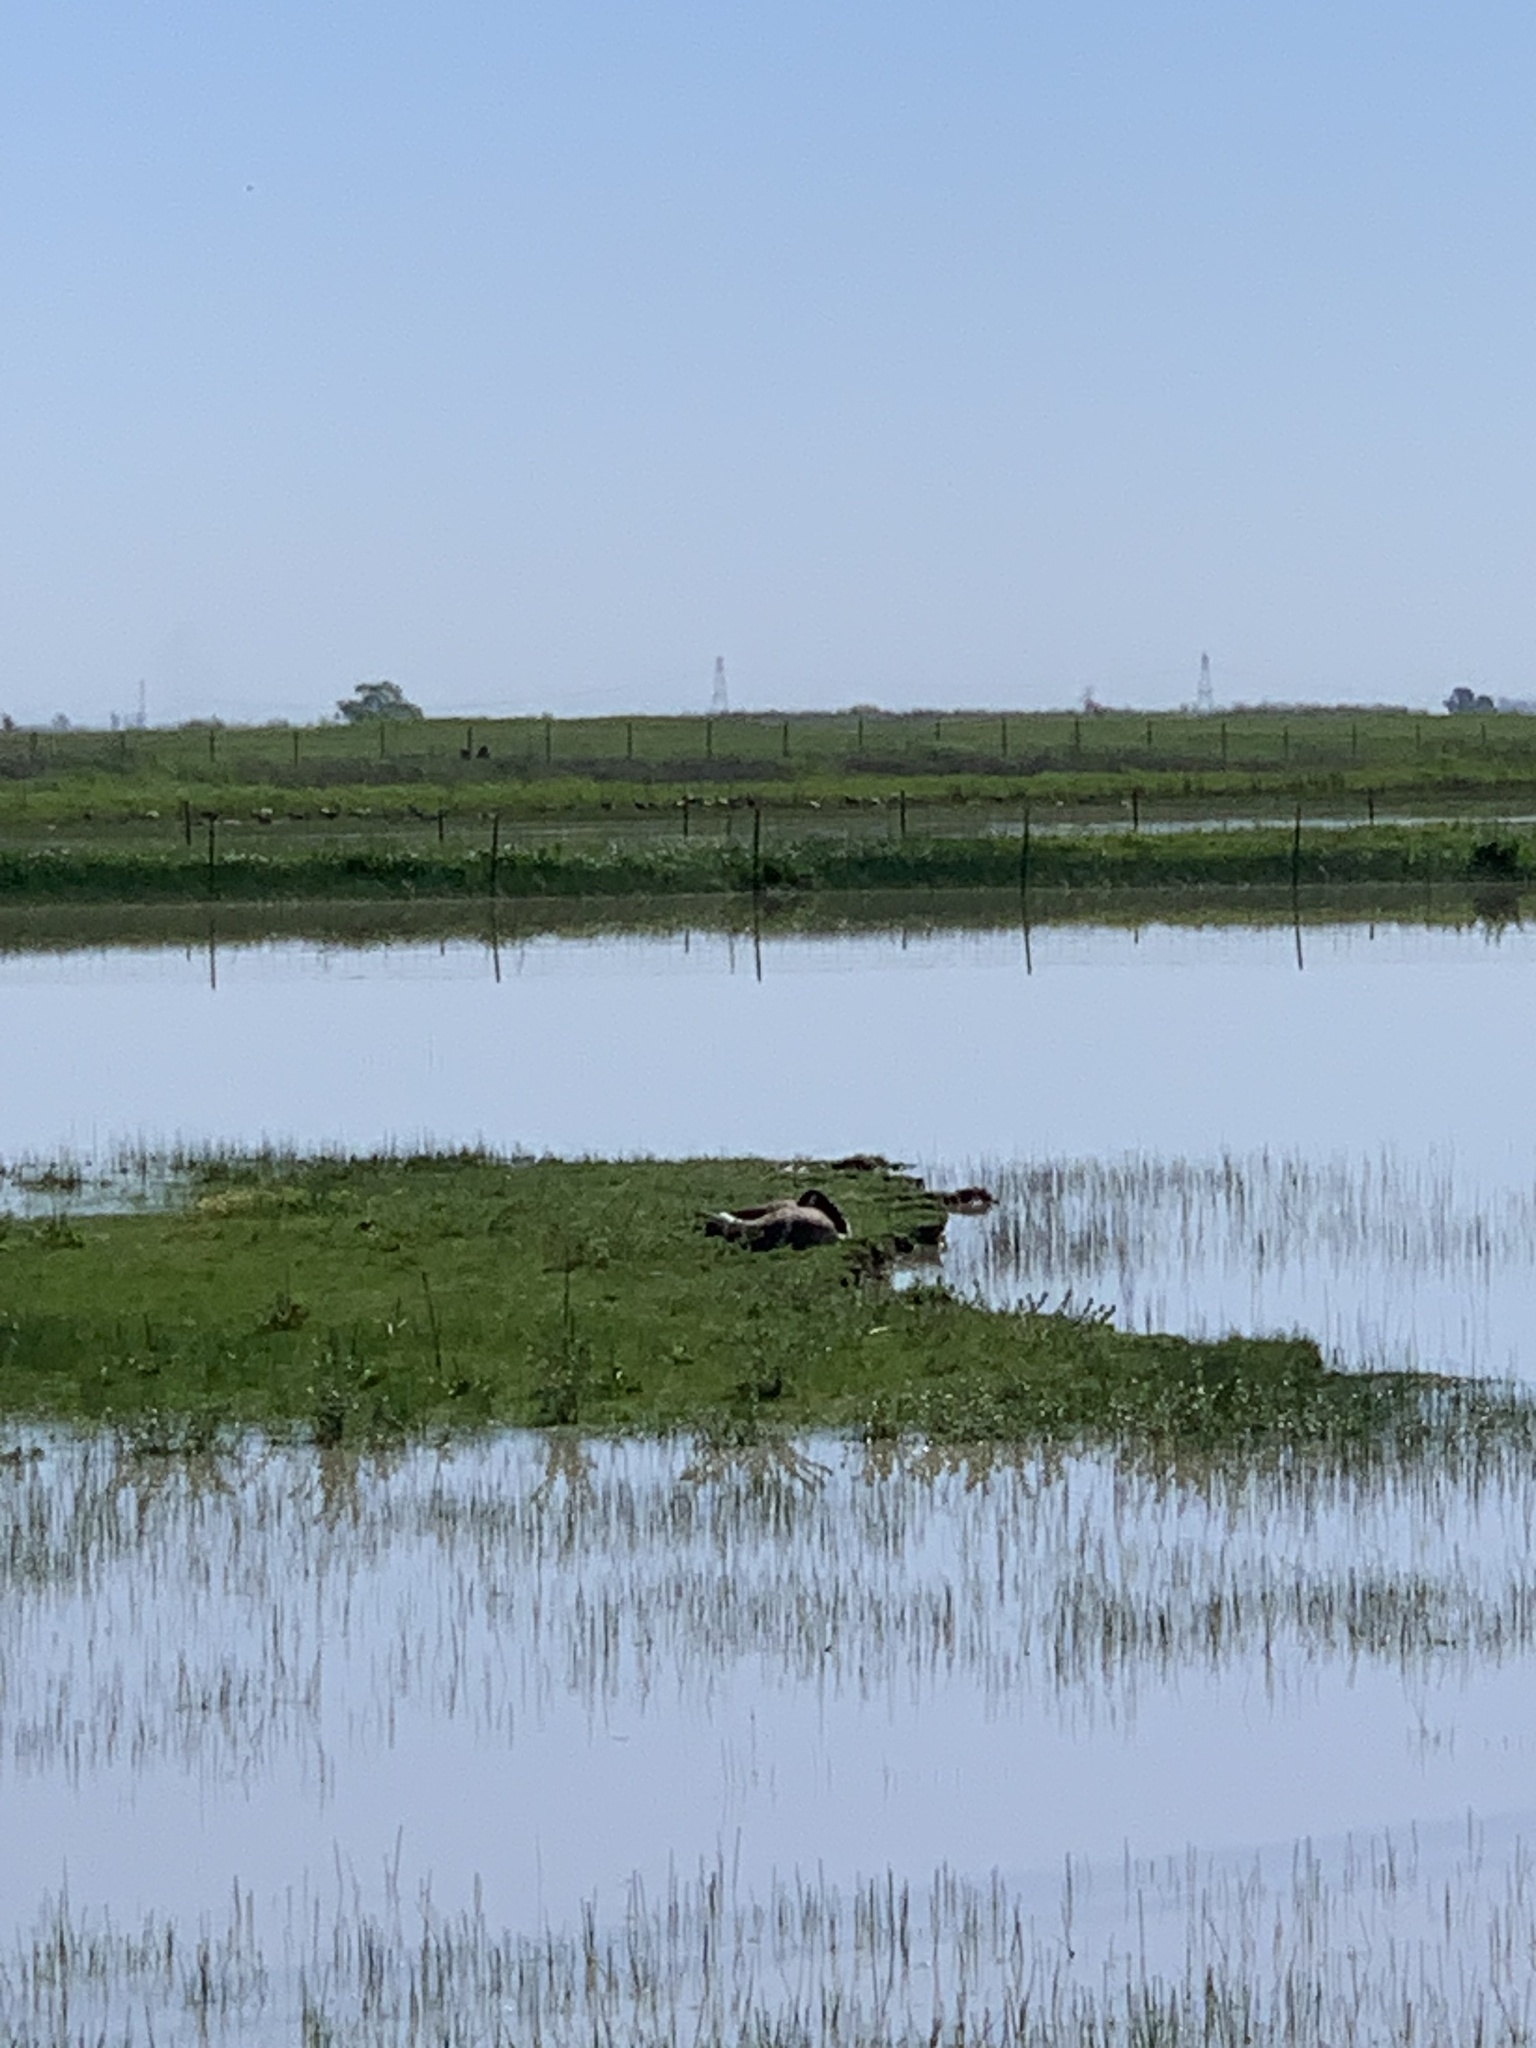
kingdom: Animalia
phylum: Chordata
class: Aves
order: Anseriformes
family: Anatidae
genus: Branta
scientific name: Branta canadensis
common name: Canada goose
